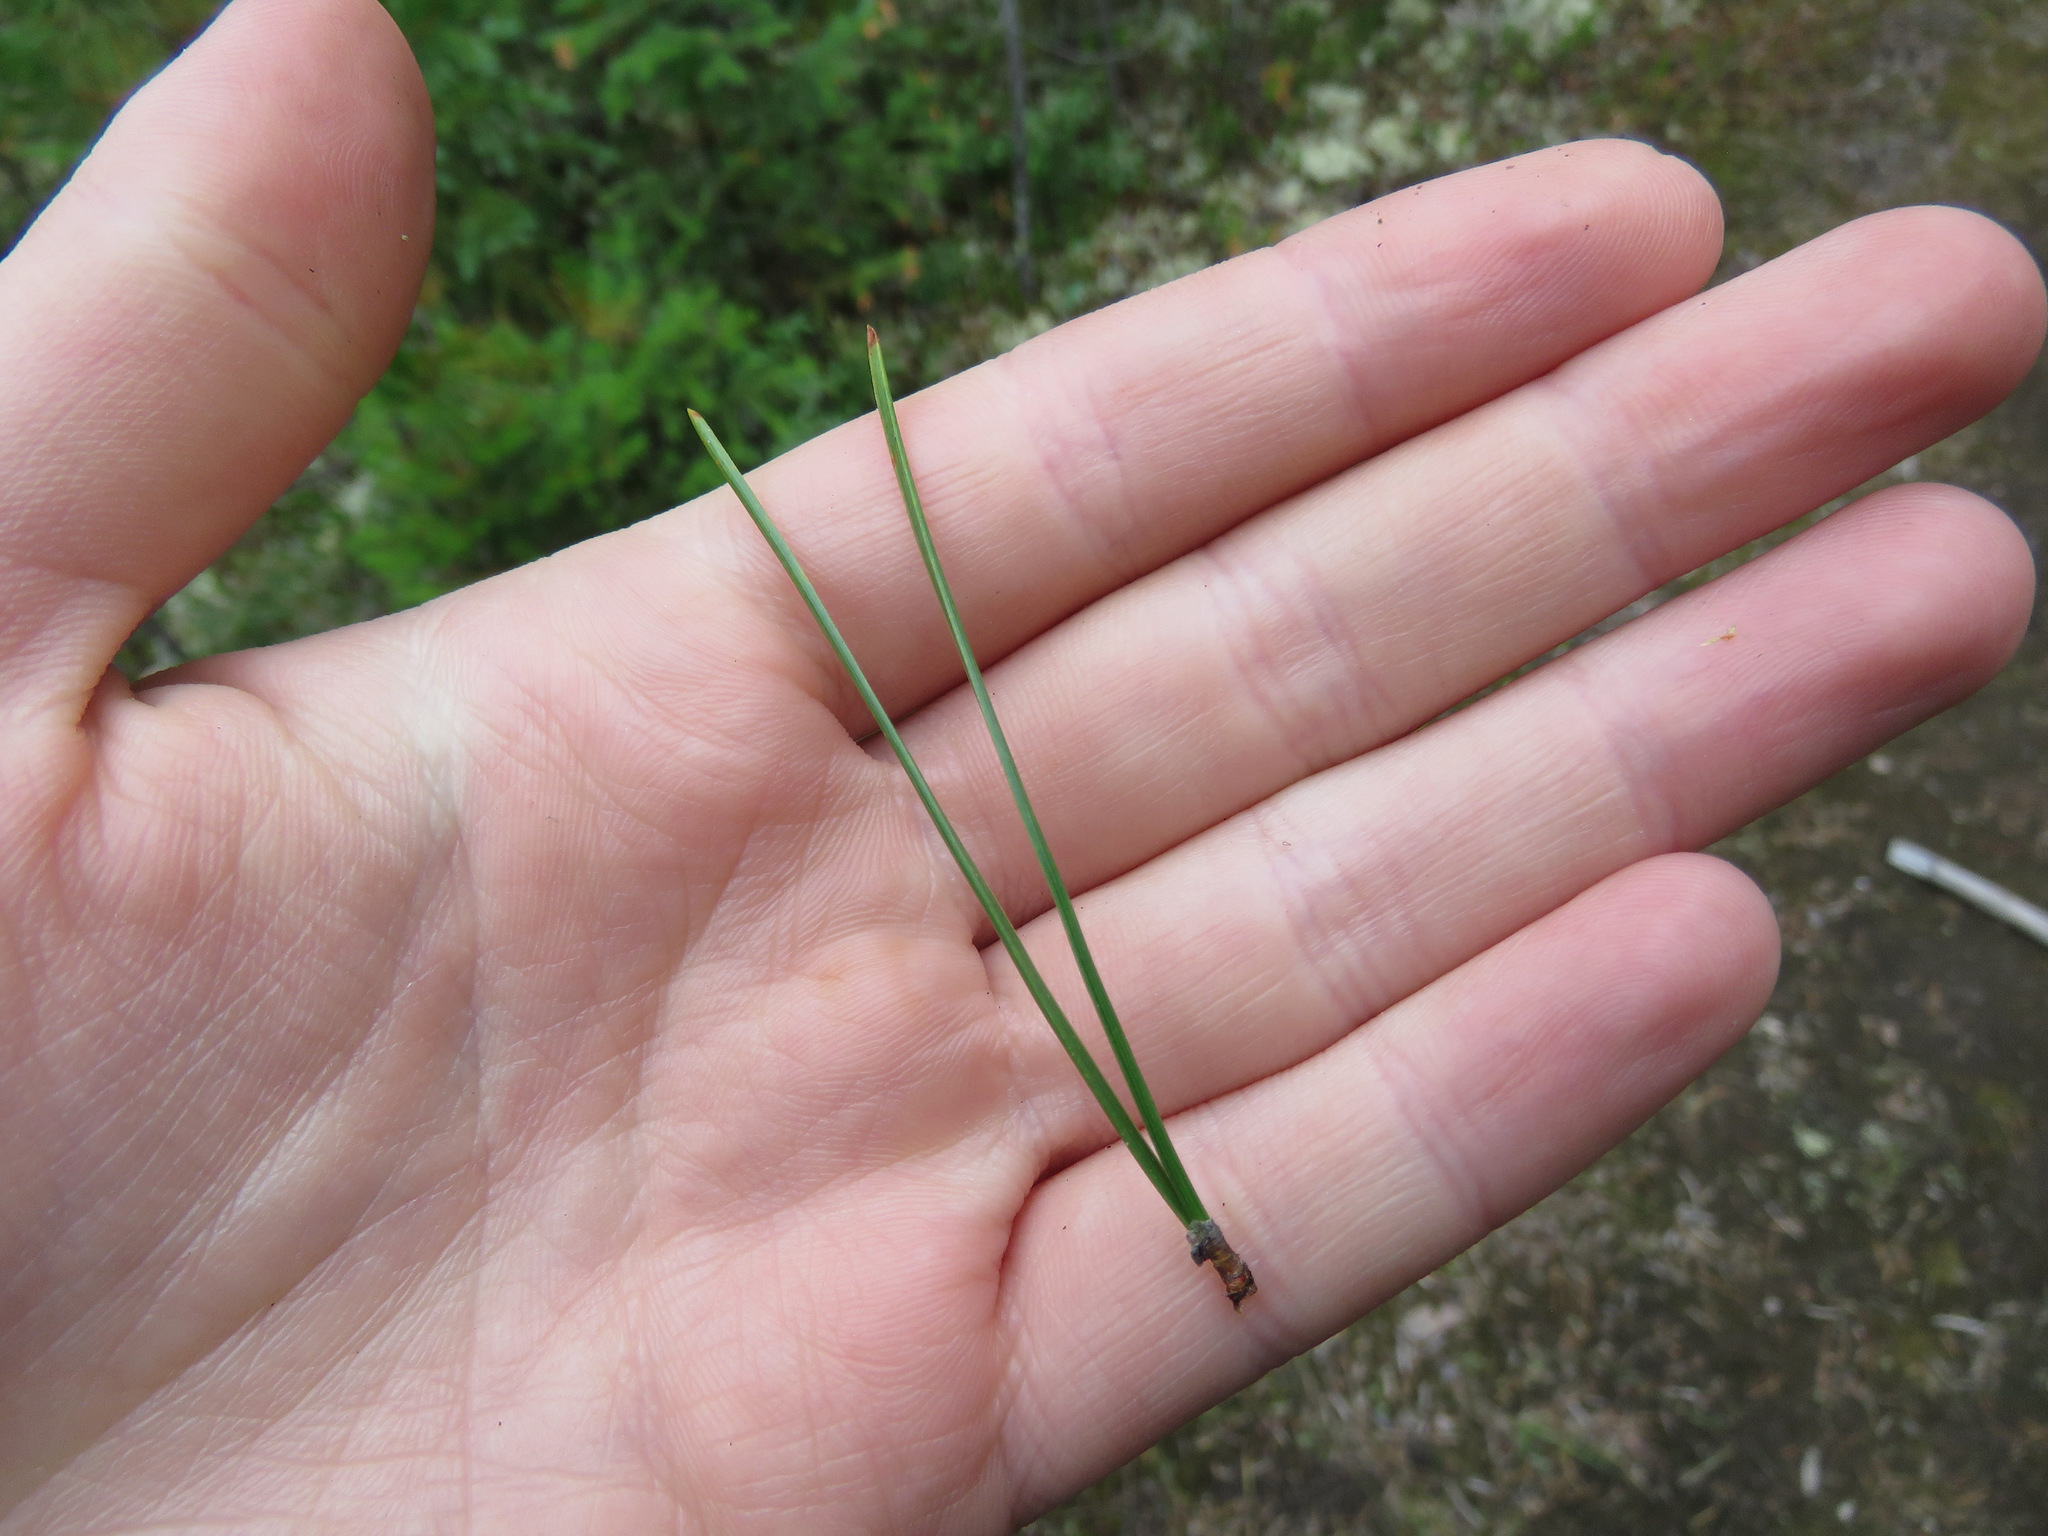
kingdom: Plantae
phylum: Tracheophyta
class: Pinopsida
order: Pinales
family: Pinaceae
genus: Pinus
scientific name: Pinus contorta
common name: Lodgepole pine
